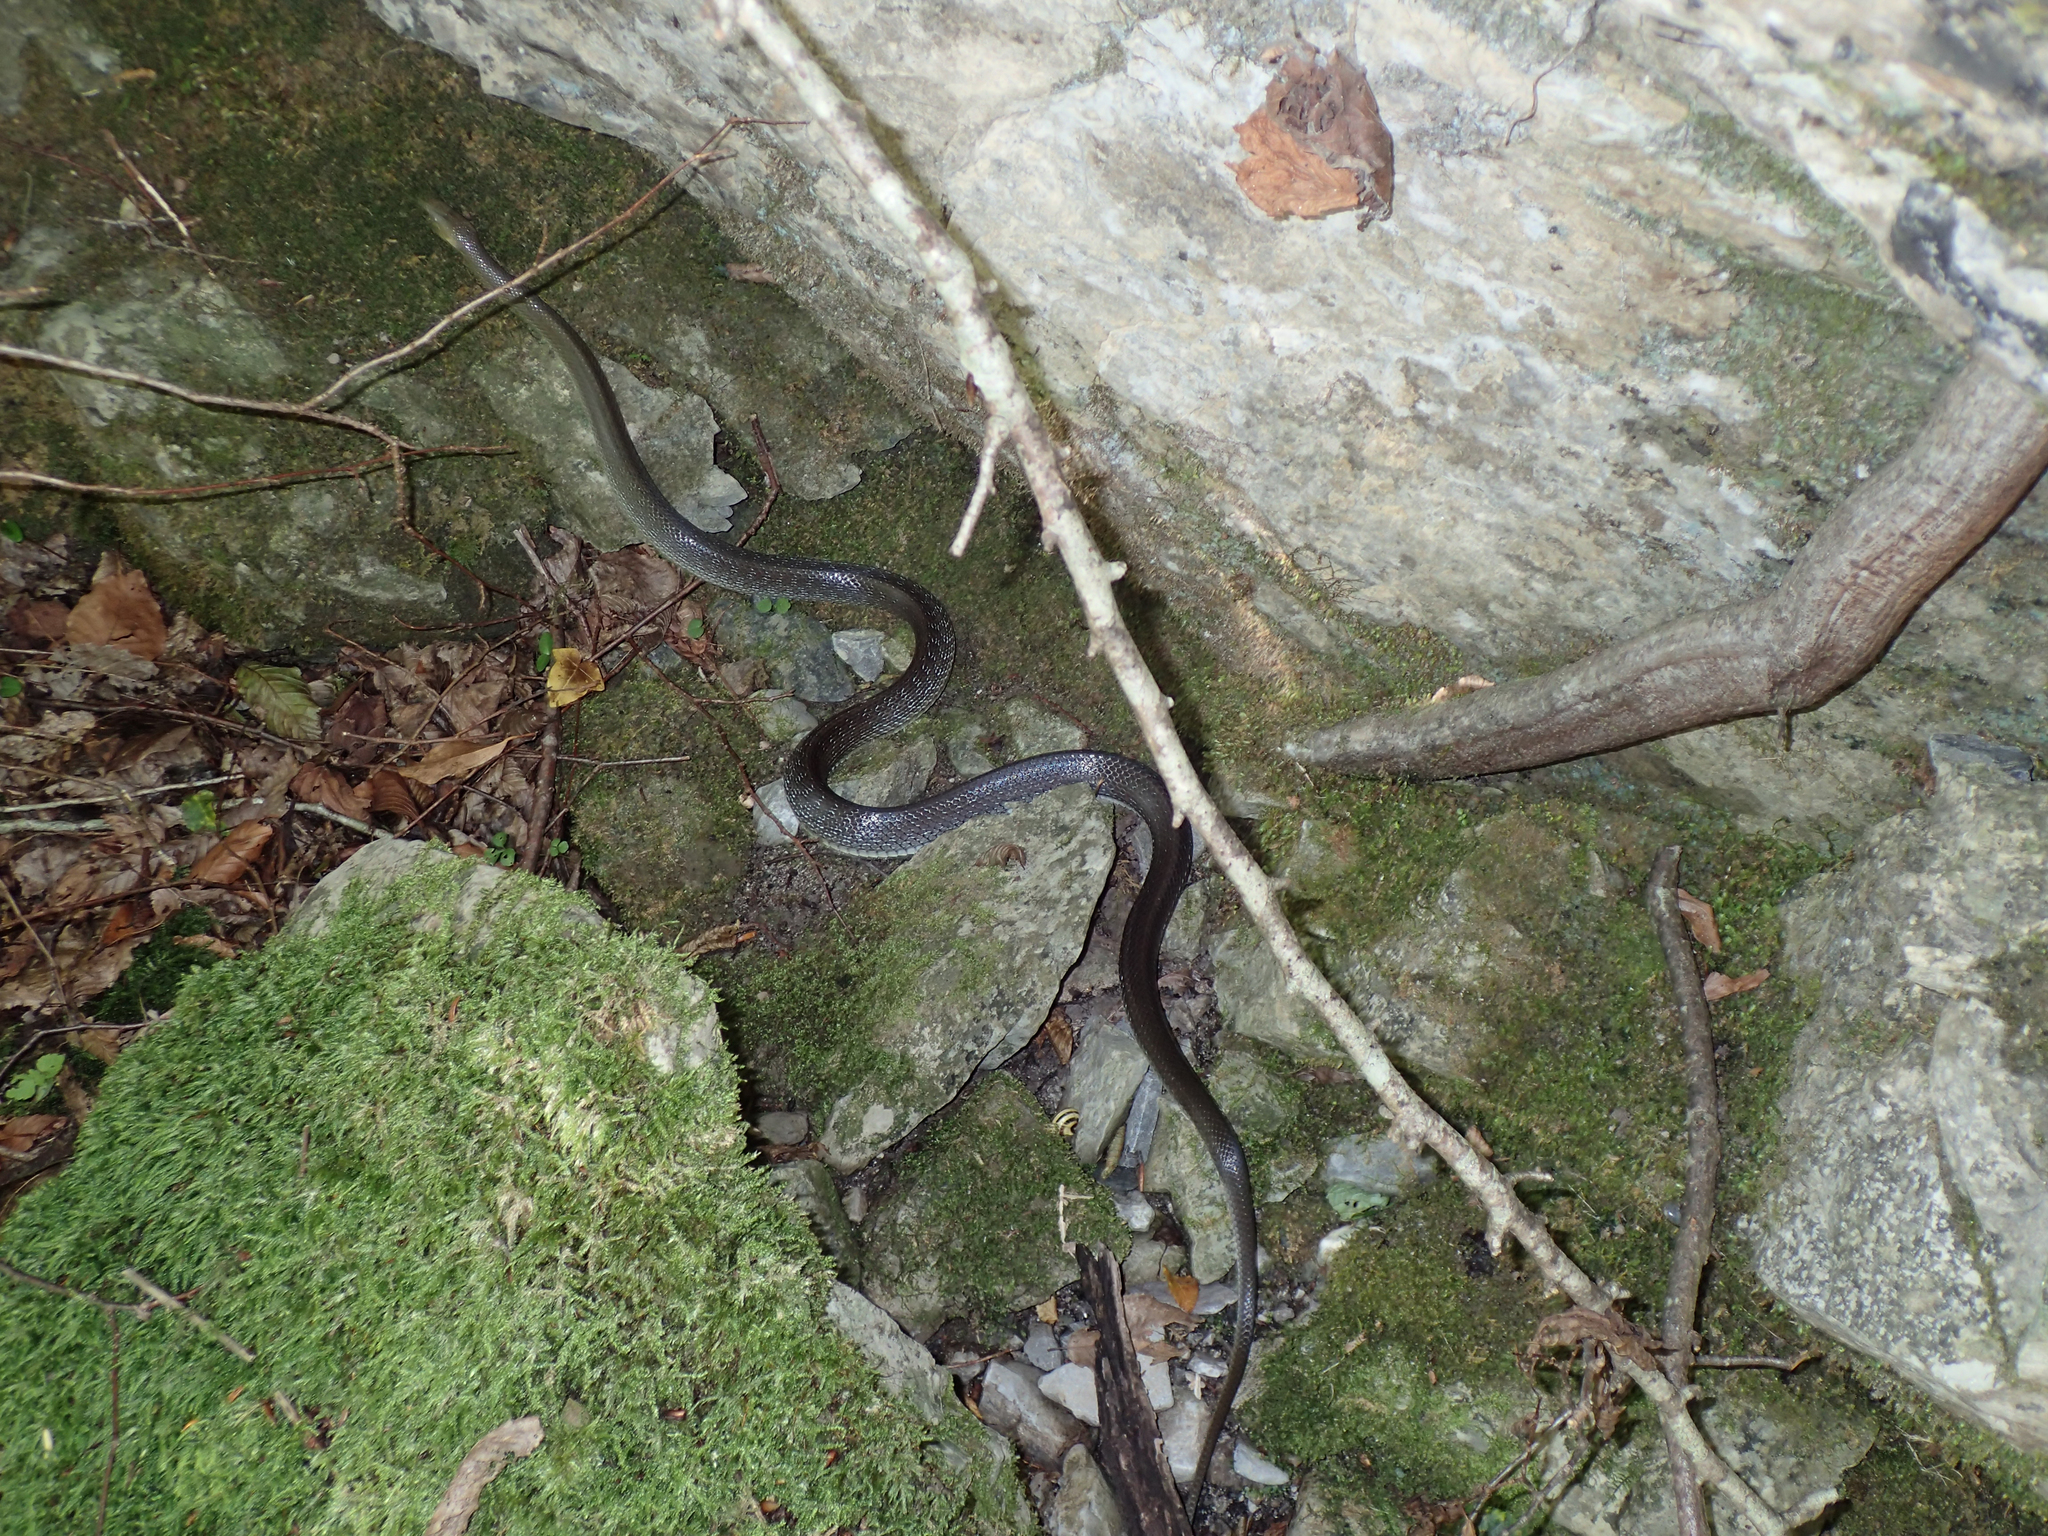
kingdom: Animalia
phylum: Chordata
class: Squamata
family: Colubridae
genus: Zamenis
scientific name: Zamenis longissimus
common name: Aesculapean snake
